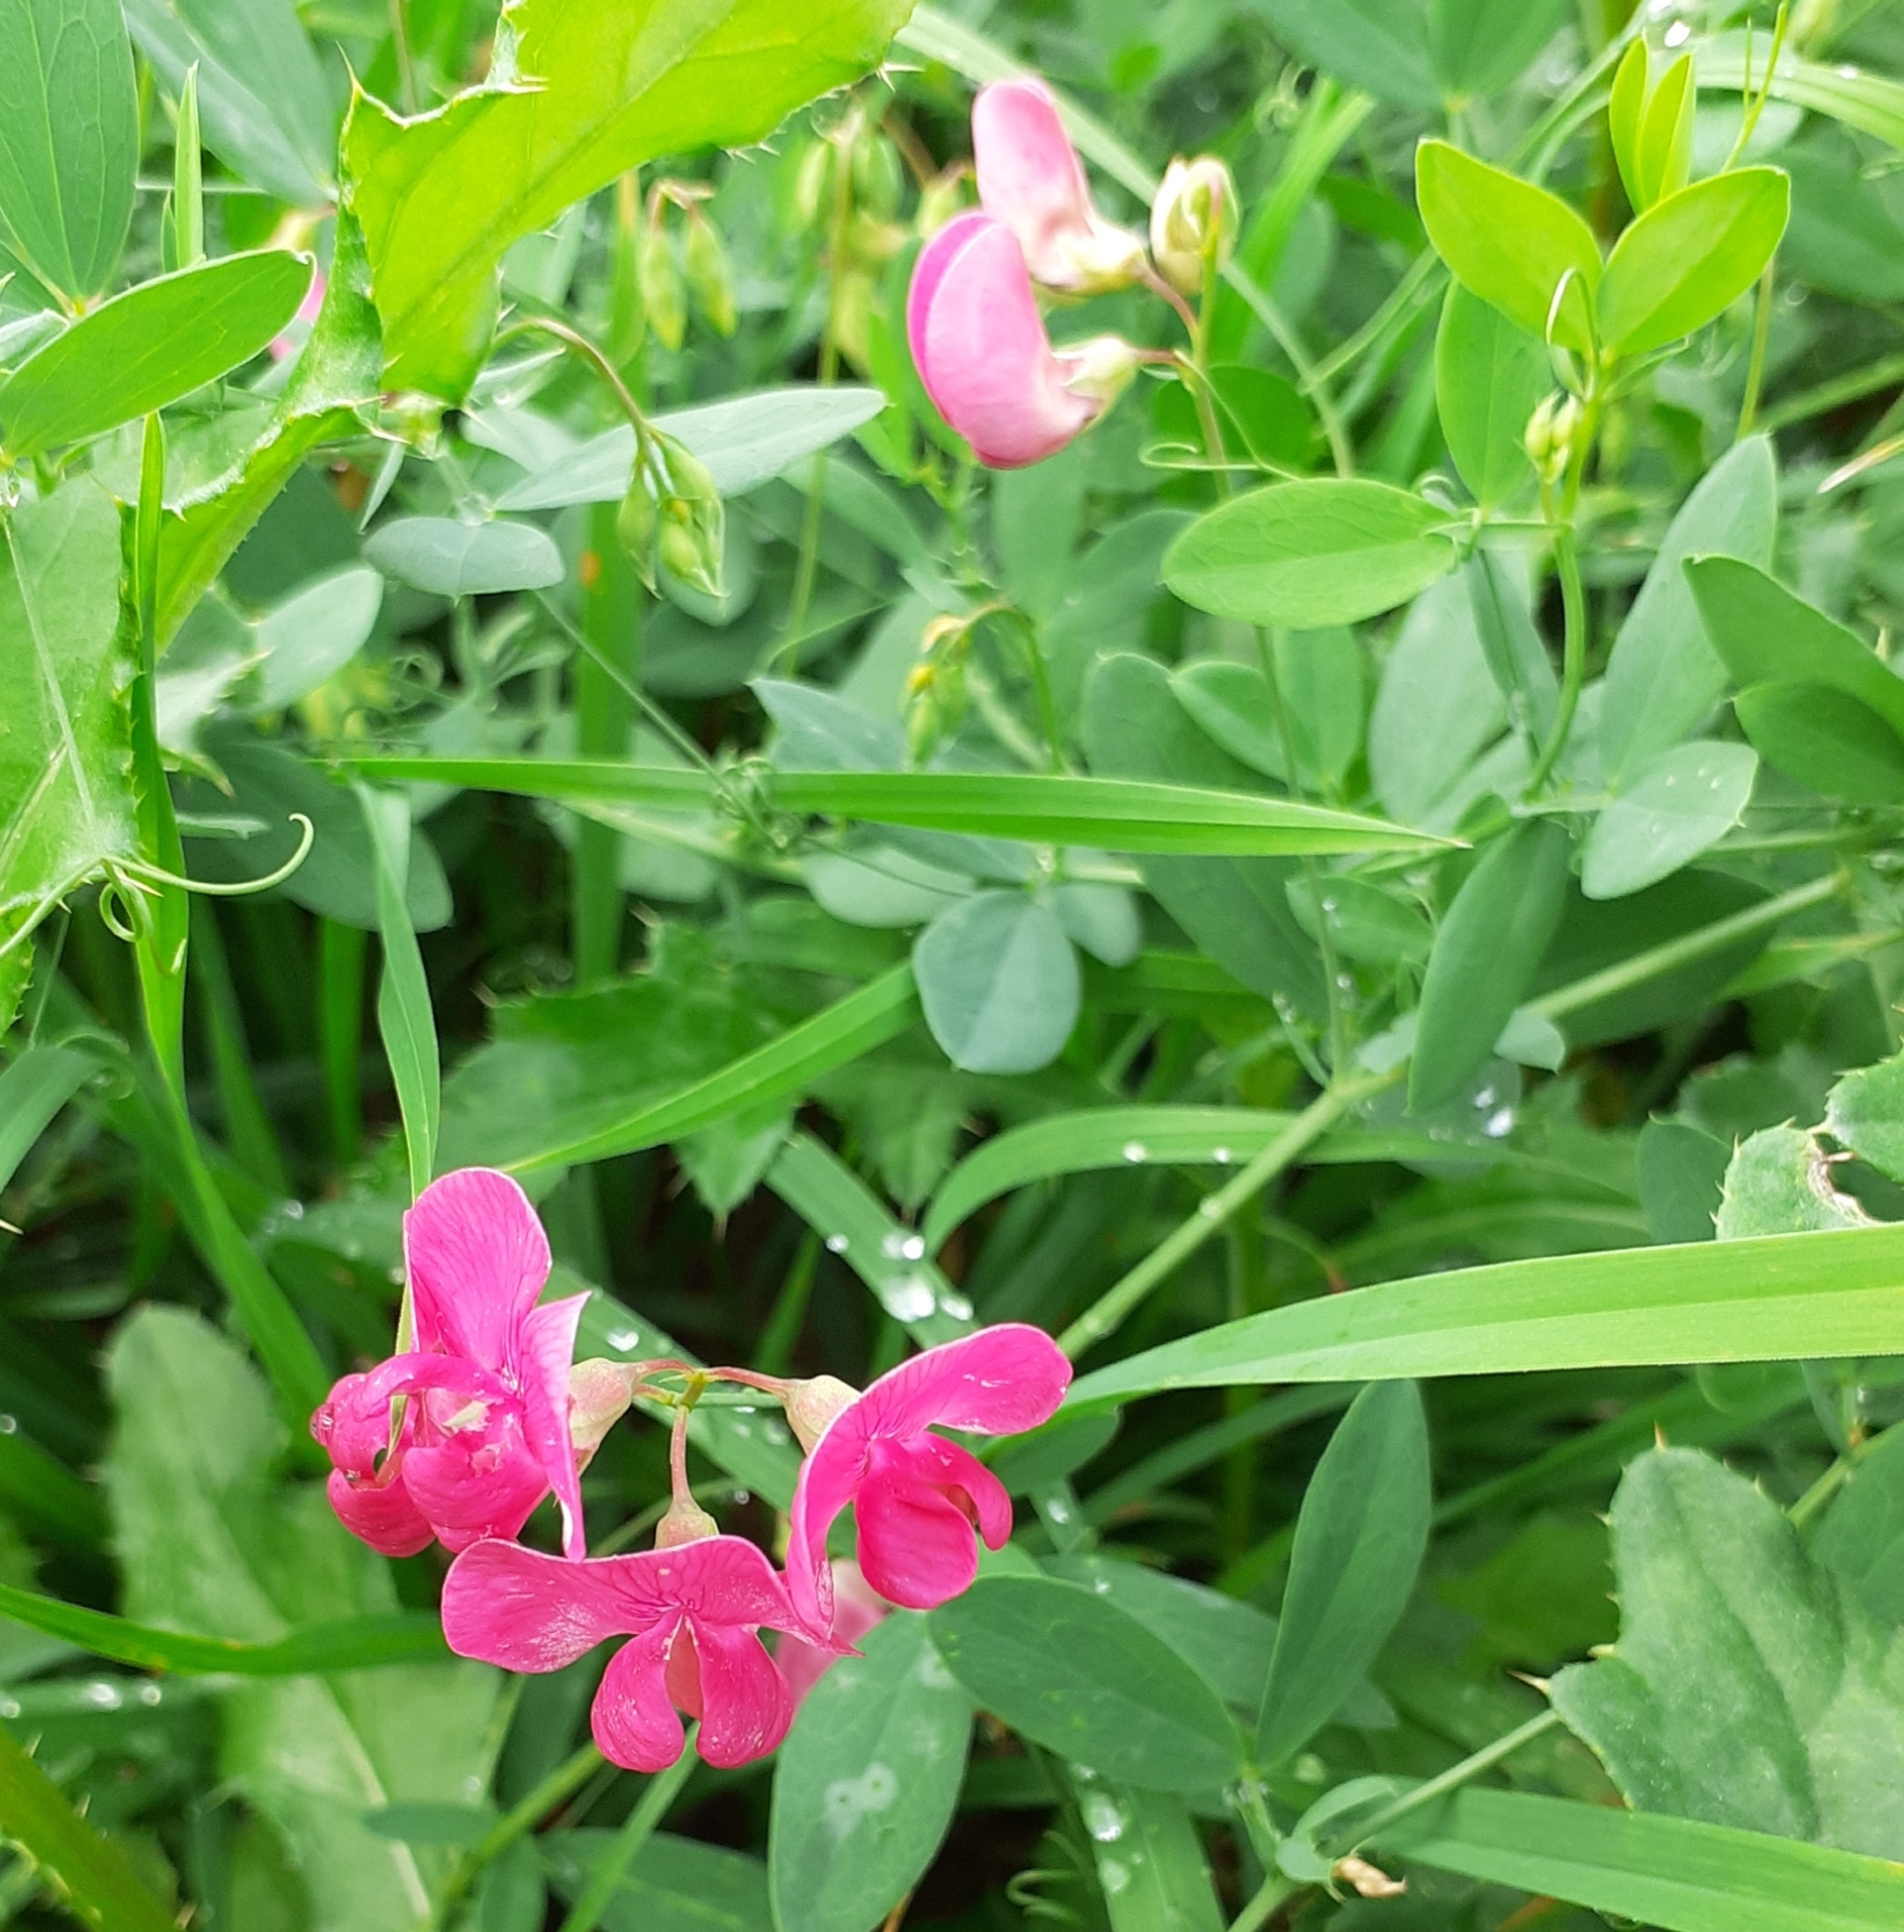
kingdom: Plantae
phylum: Tracheophyta
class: Magnoliopsida
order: Fabales
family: Fabaceae
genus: Lathyrus
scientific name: Lathyrus tuberosus
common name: Tuberous pea
